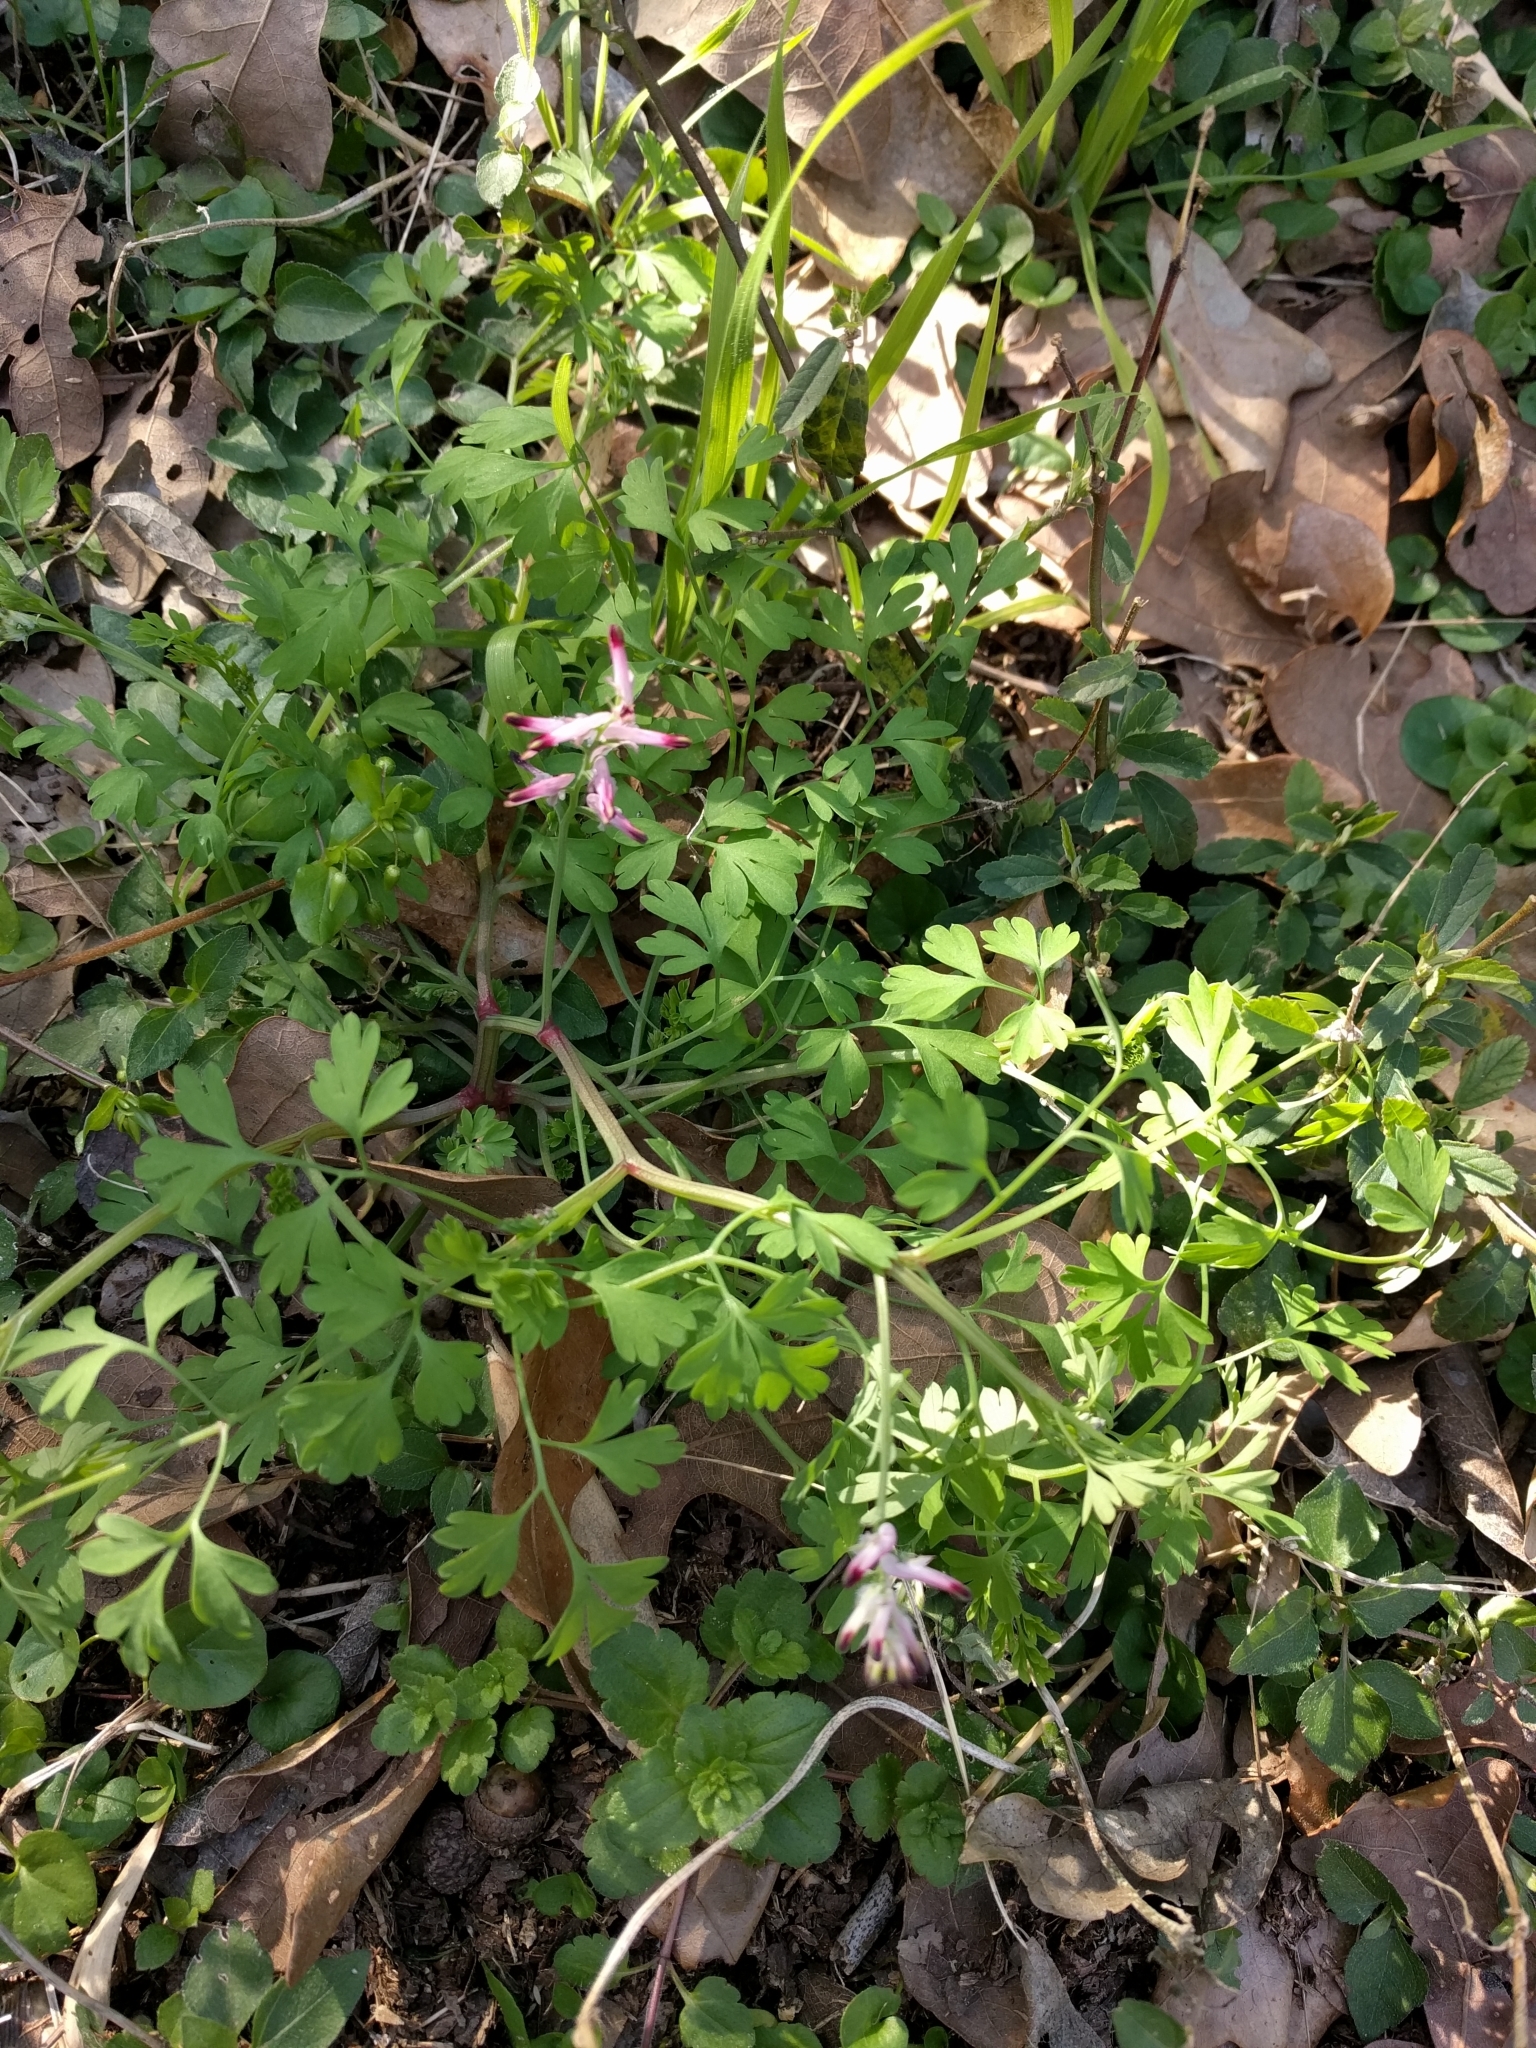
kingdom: Plantae
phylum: Tracheophyta
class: Magnoliopsida
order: Ranunculales
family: Papaveraceae
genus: Fumaria
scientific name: Fumaria muralis
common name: Common ramping-fumitory
